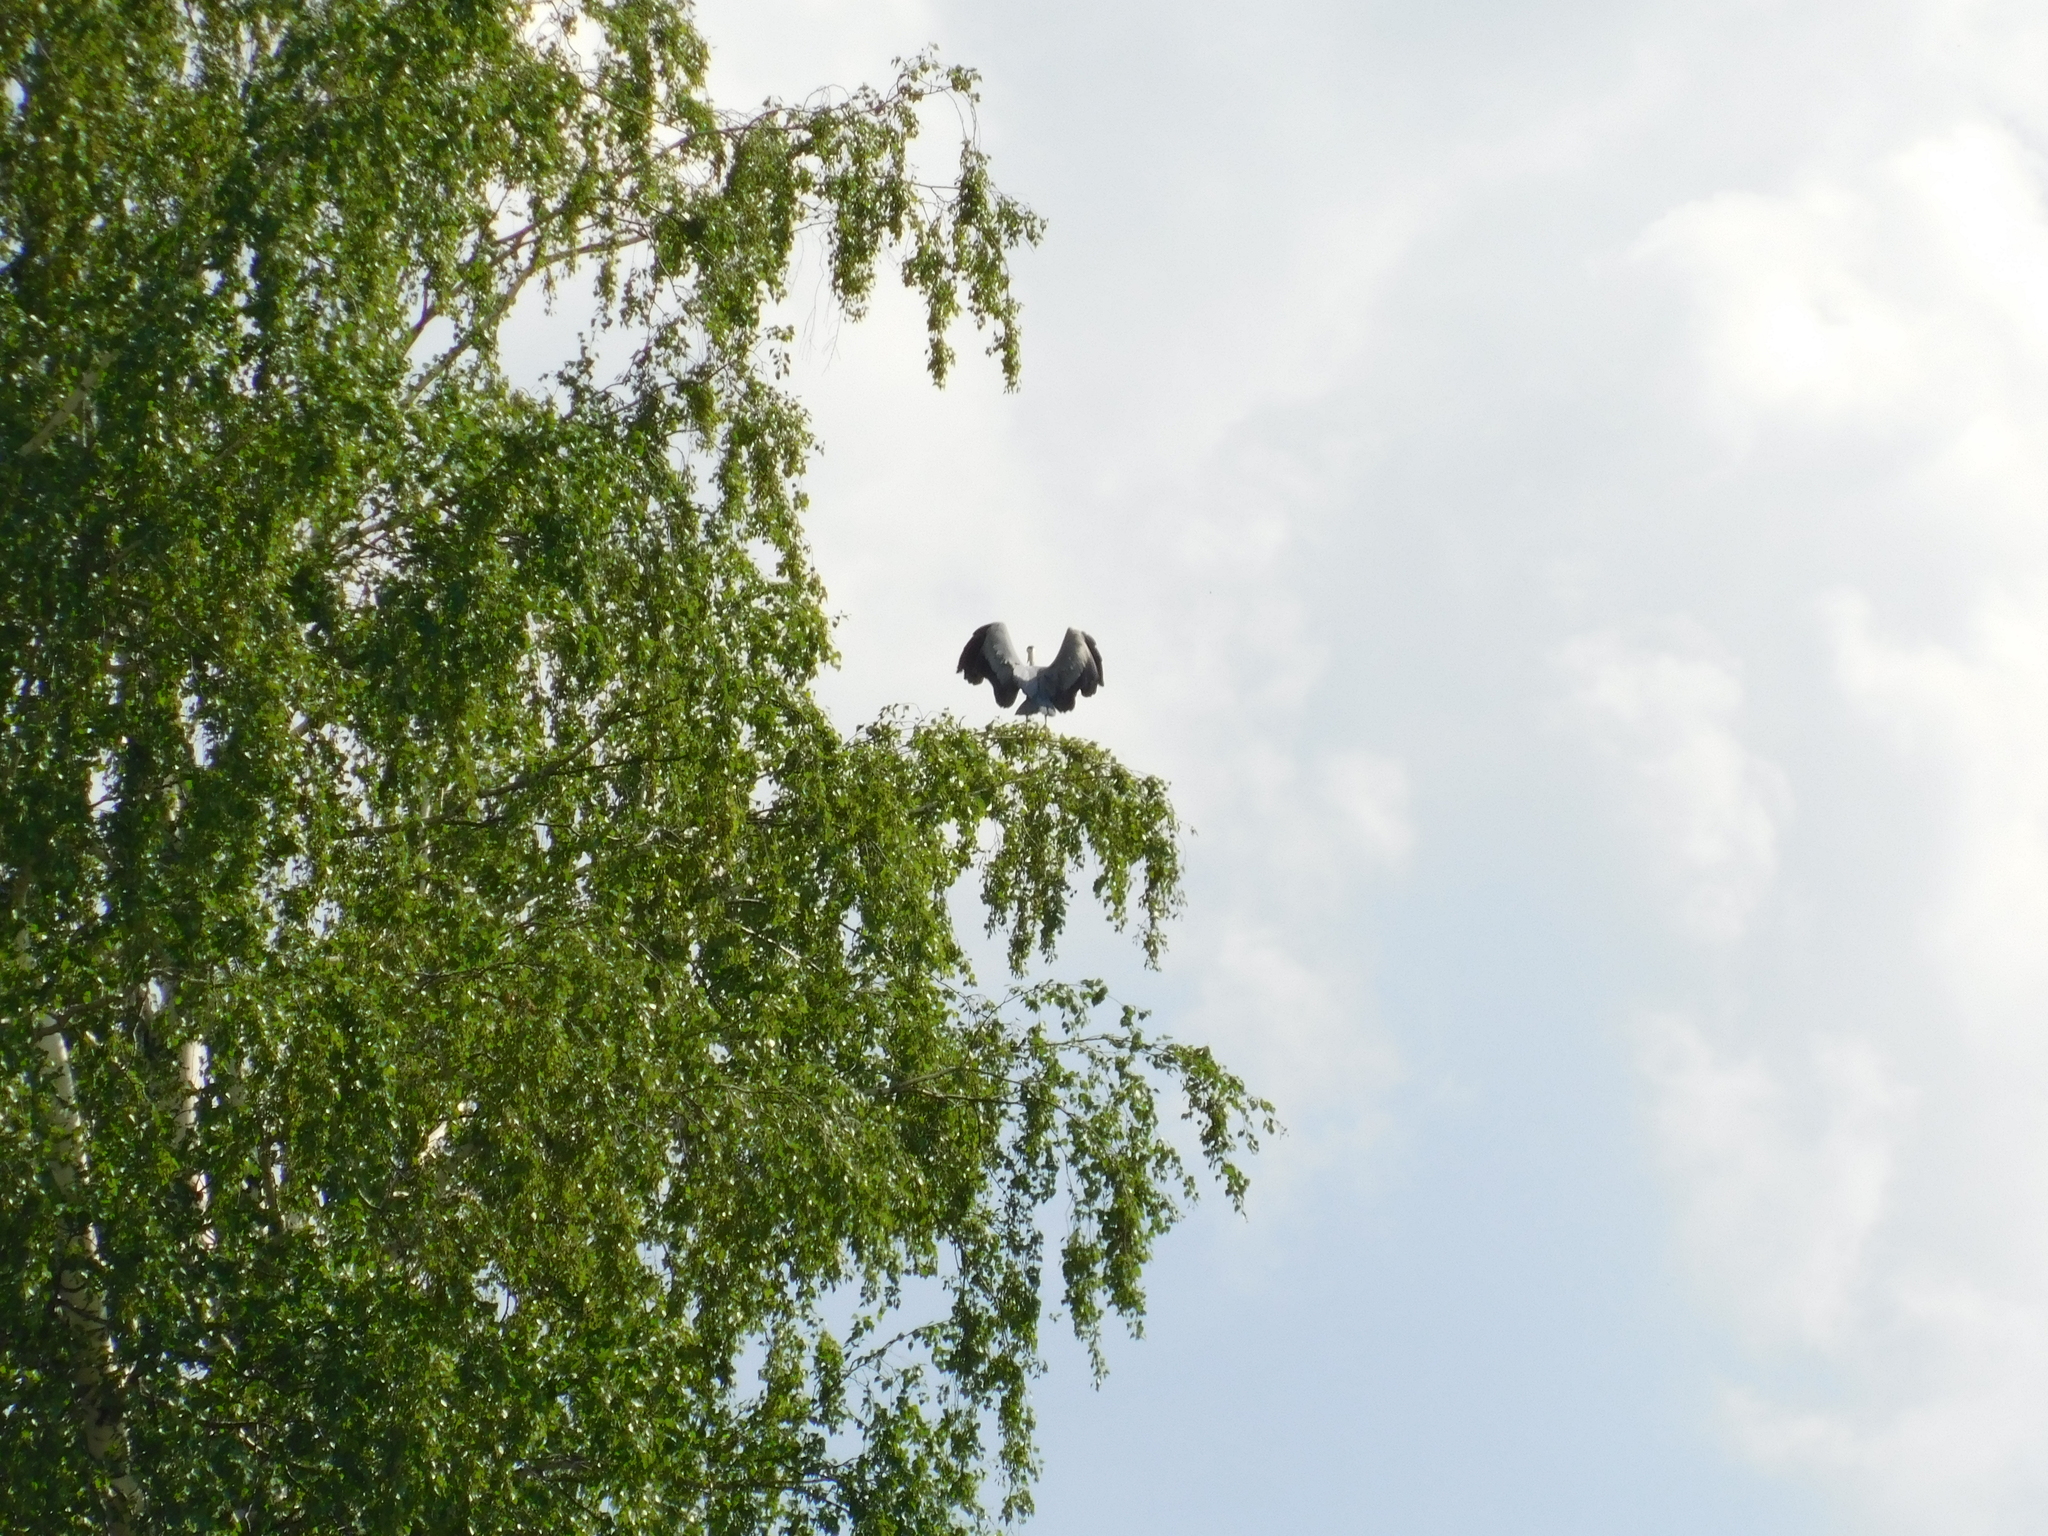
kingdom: Animalia
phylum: Chordata
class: Aves
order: Pelecaniformes
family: Ardeidae
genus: Ardea
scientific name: Ardea cinerea
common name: Grey heron
